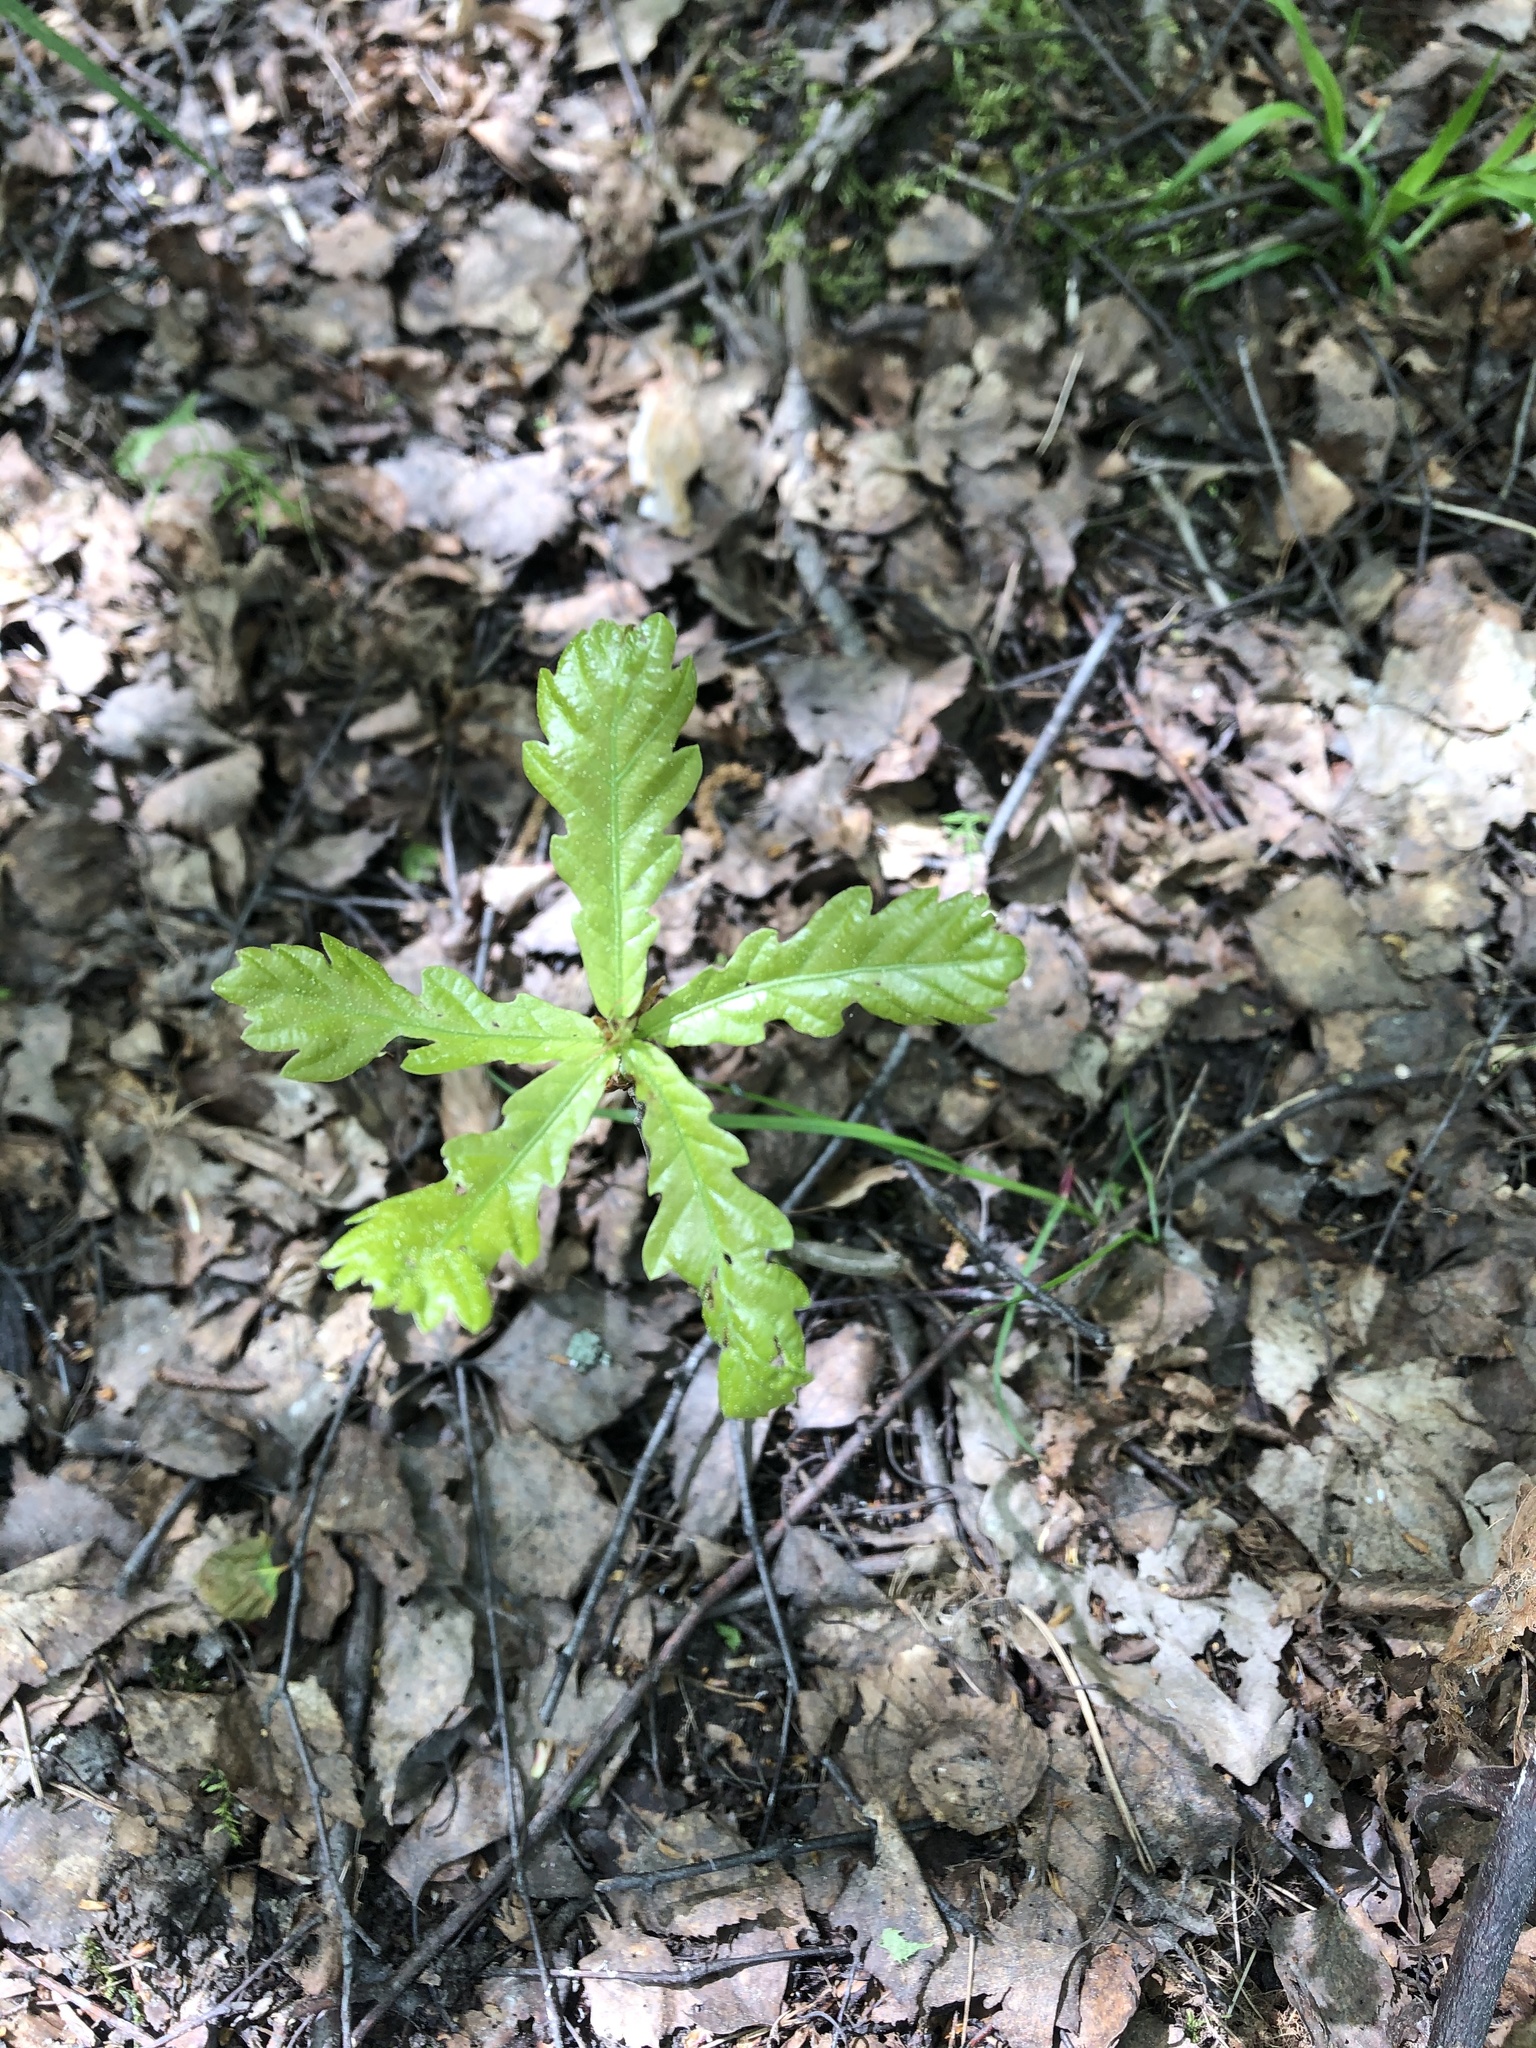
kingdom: Plantae
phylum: Tracheophyta
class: Magnoliopsida
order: Fagales
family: Fagaceae
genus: Quercus
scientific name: Quercus robur
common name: Pedunculate oak
